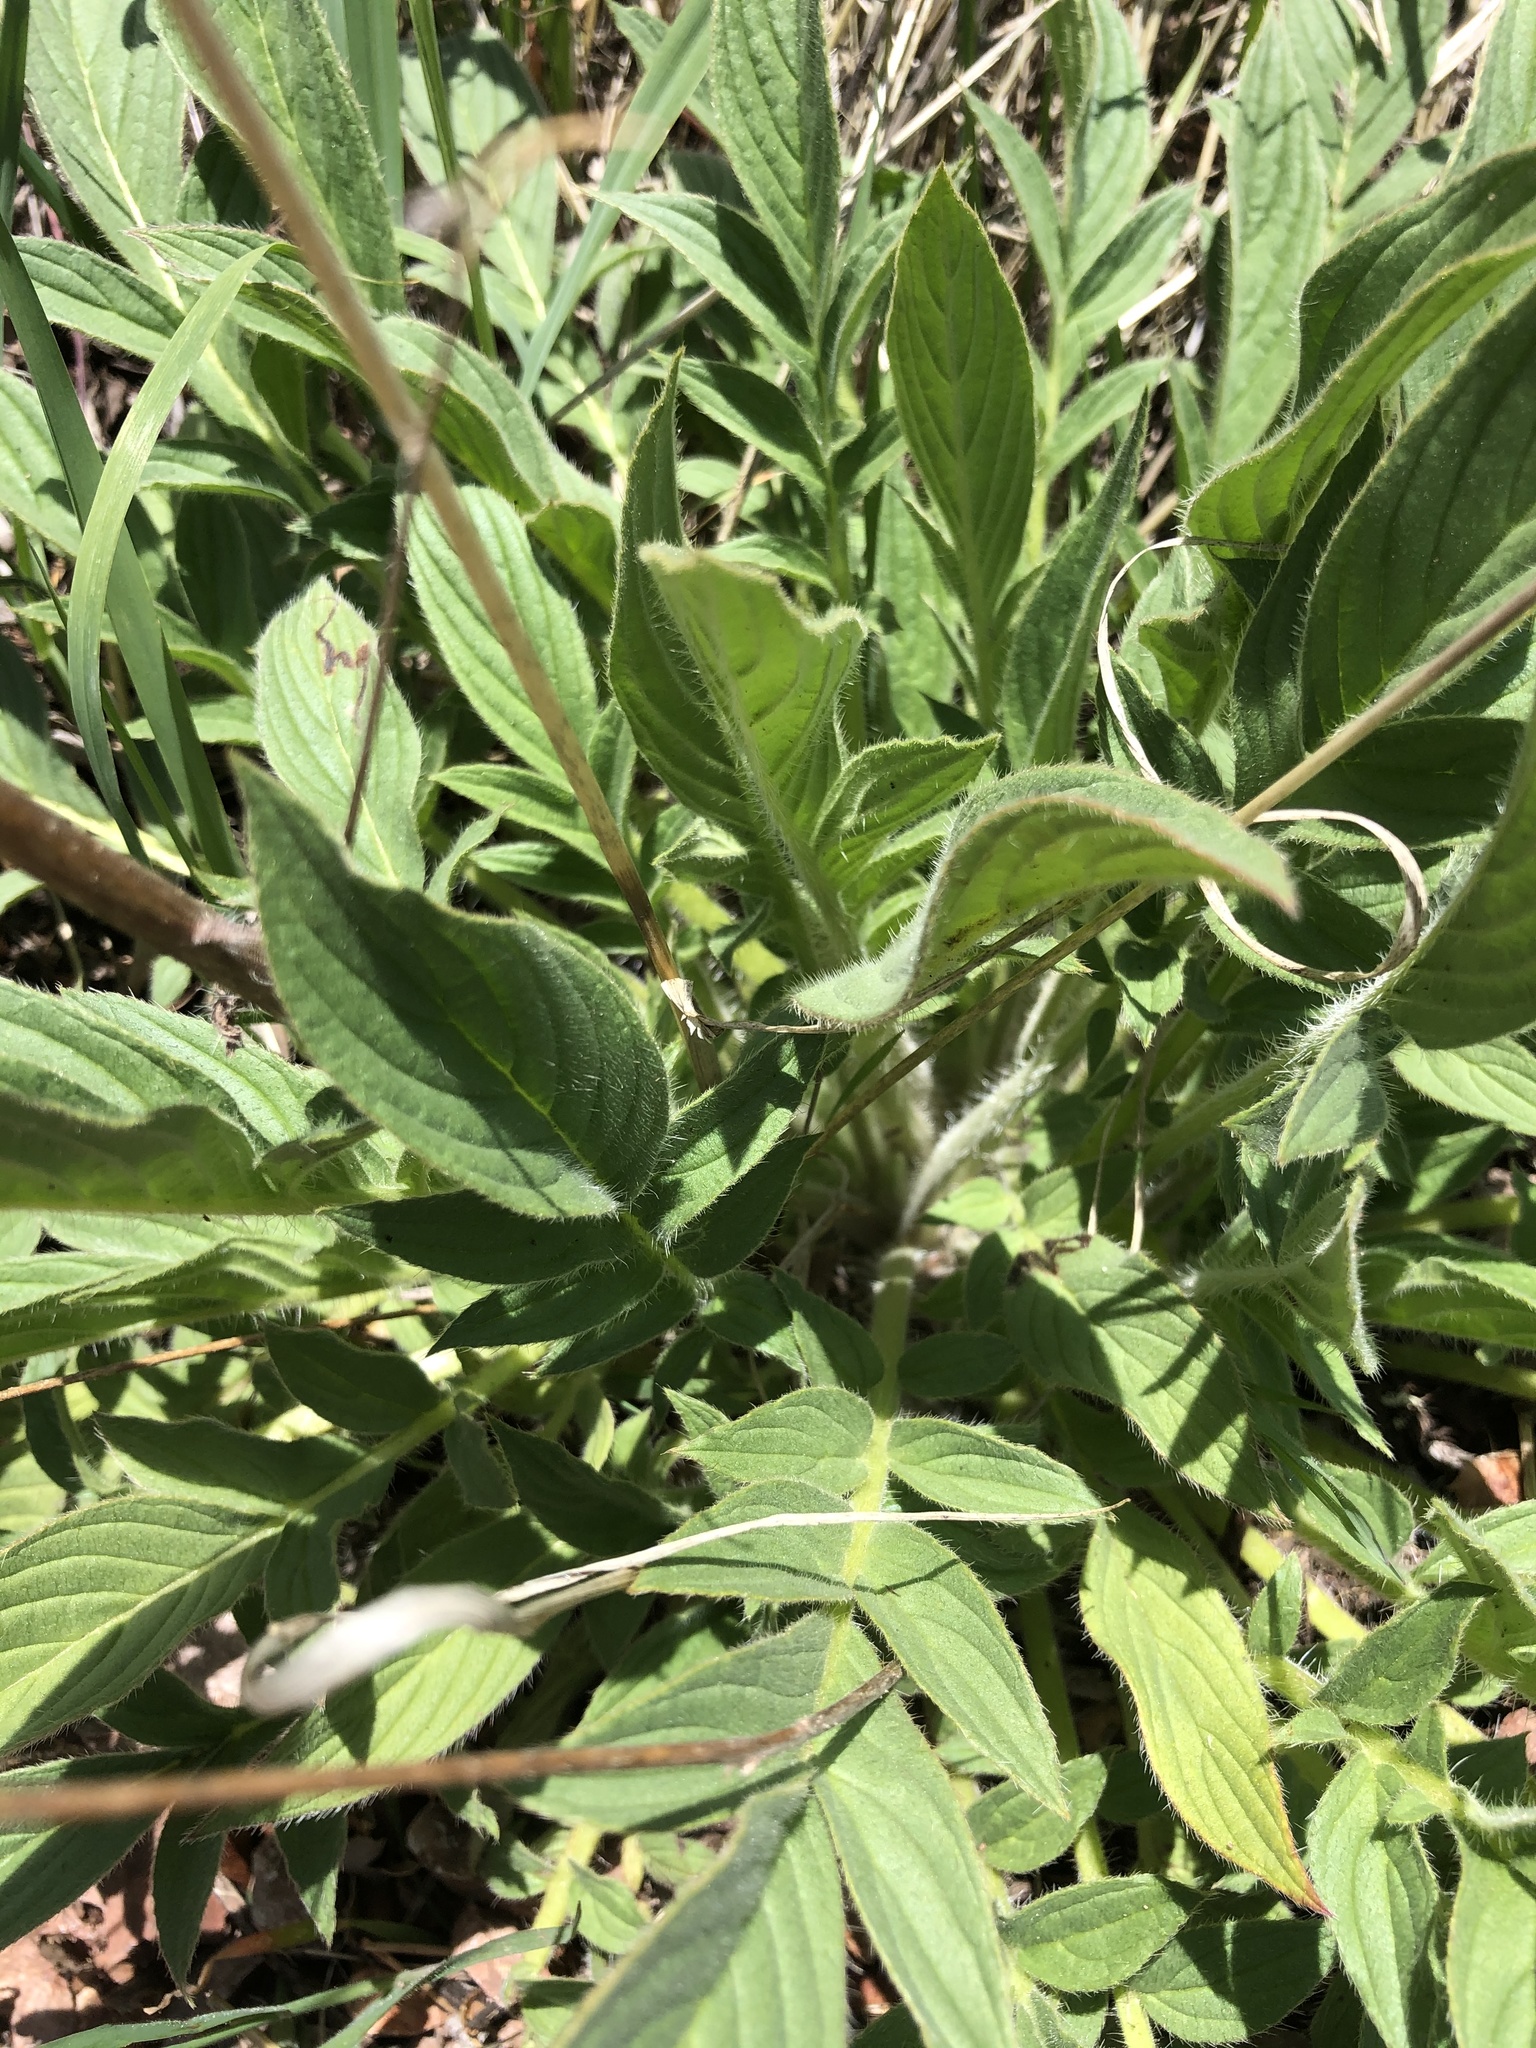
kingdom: Plantae
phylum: Tracheophyta
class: Magnoliopsida
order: Boraginales
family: Hydrophyllaceae
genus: Phacelia
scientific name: Phacelia imbricata
